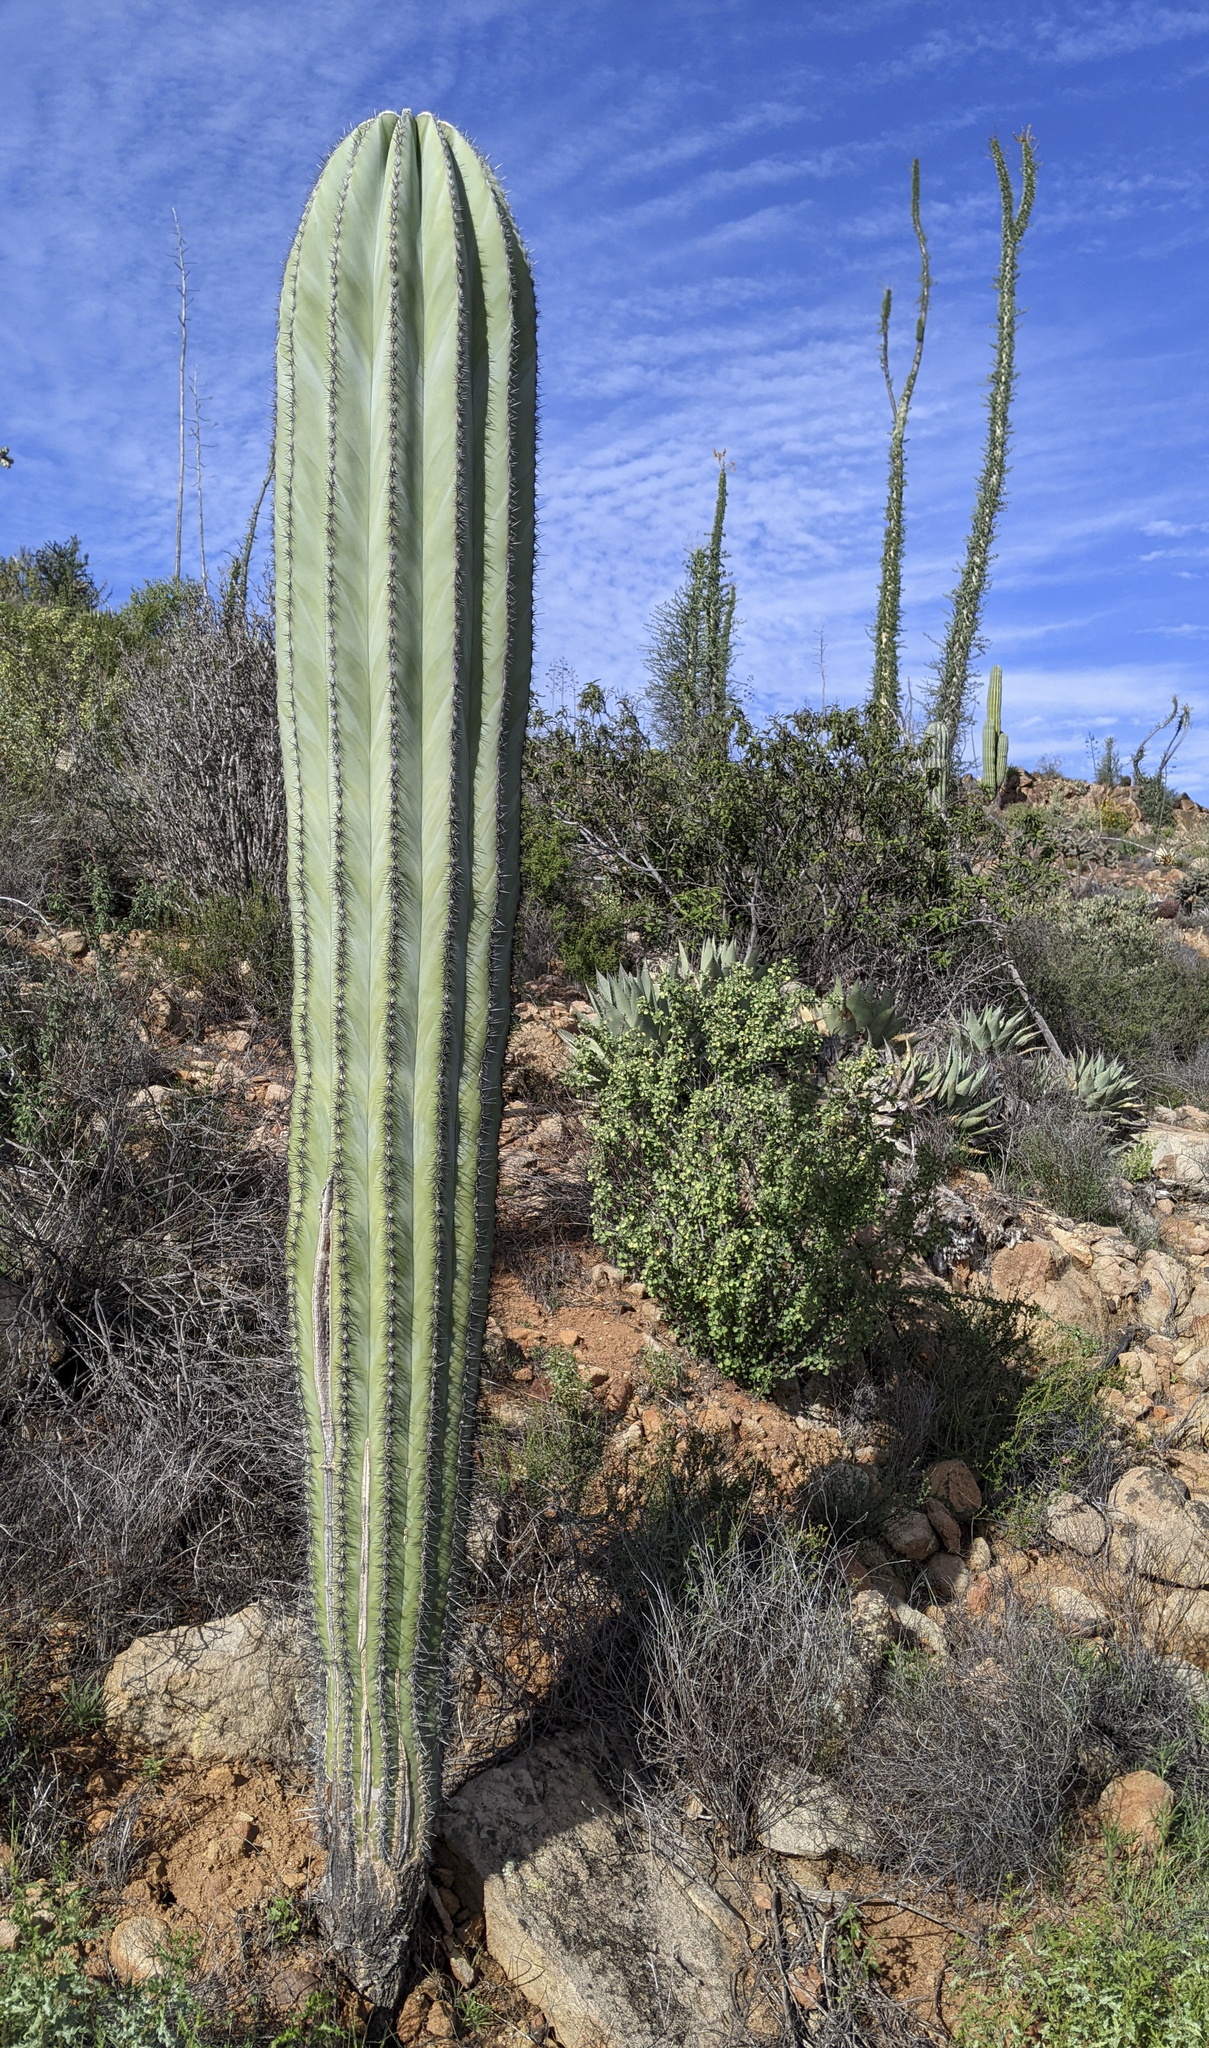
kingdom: Plantae
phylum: Tracheophyta
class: Magnoliopsida
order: Caryophyllales
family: Cactaceae
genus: Pachycereus
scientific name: Pachycereus pringlei
